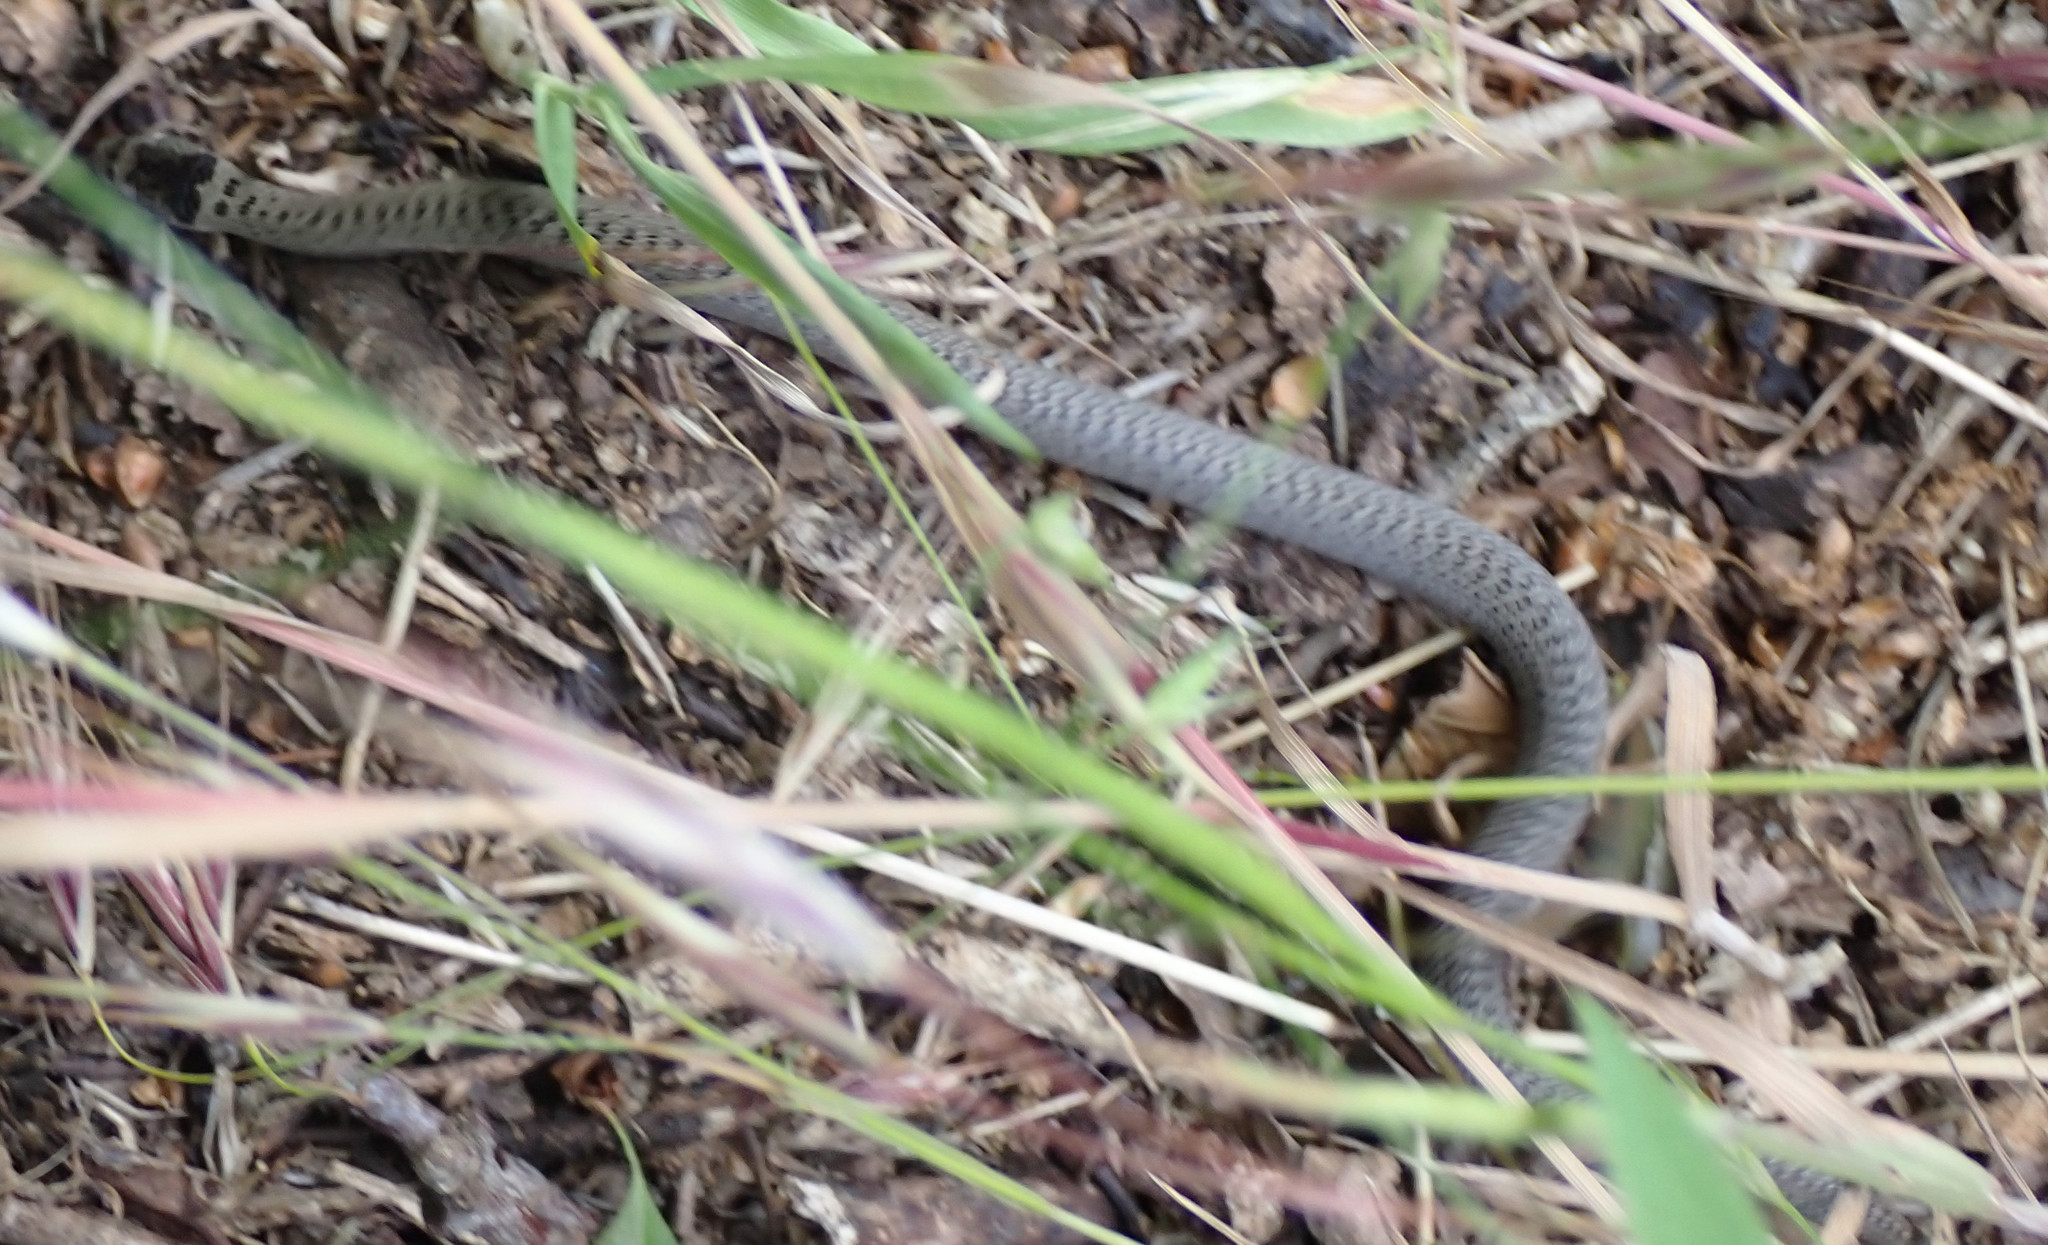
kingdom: Animalia
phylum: Chordata
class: Squamata
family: Colubridae
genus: Coronella
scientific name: Coronella austriaca
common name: Smooth snake
